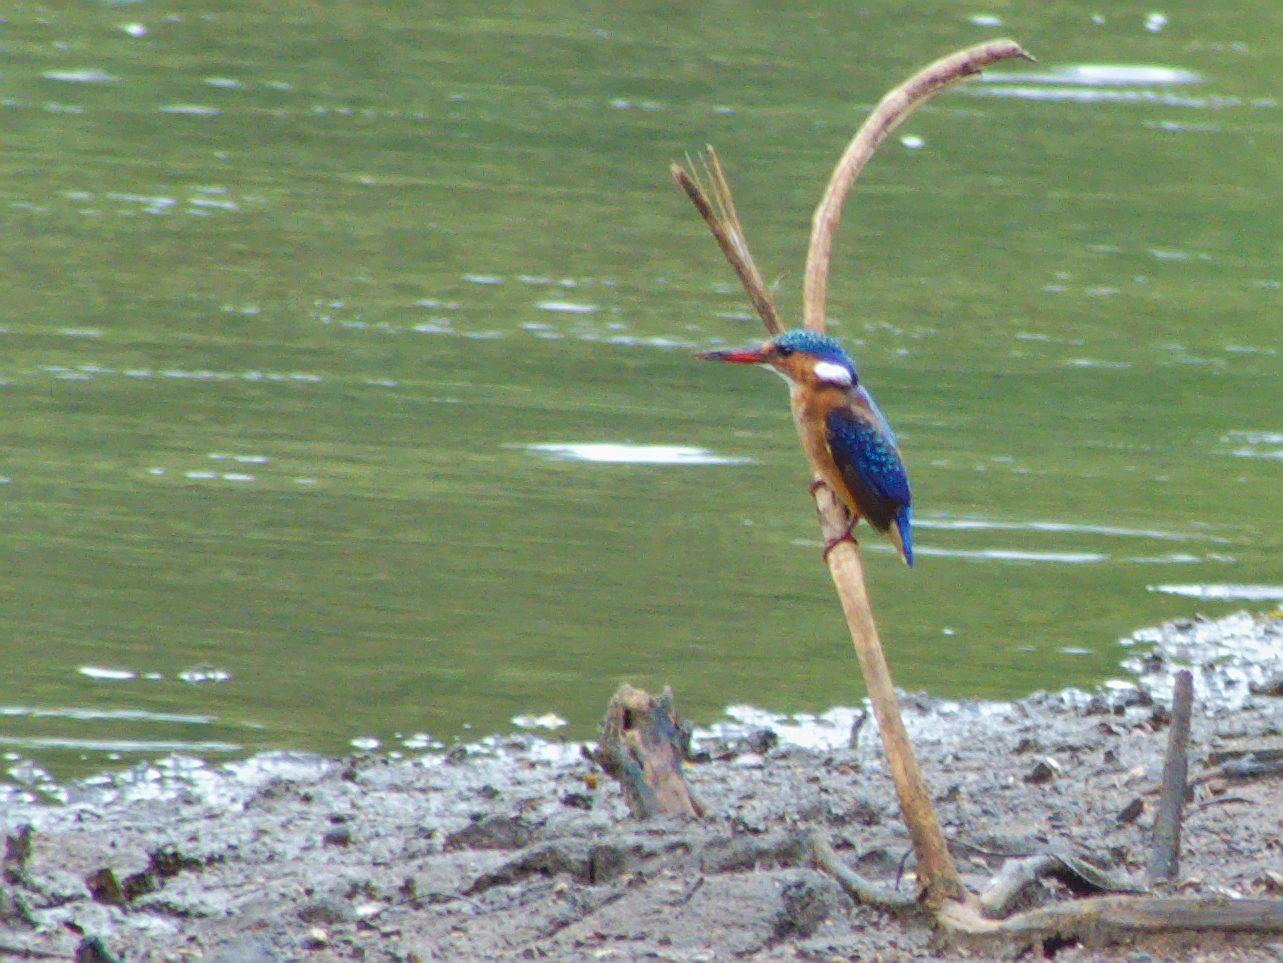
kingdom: Animalia
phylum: Chordata
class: Aves
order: Coraciiformes
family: Alcedinidae
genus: Corythornis
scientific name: Corythornis cristatus
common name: Malachite kingfisher
